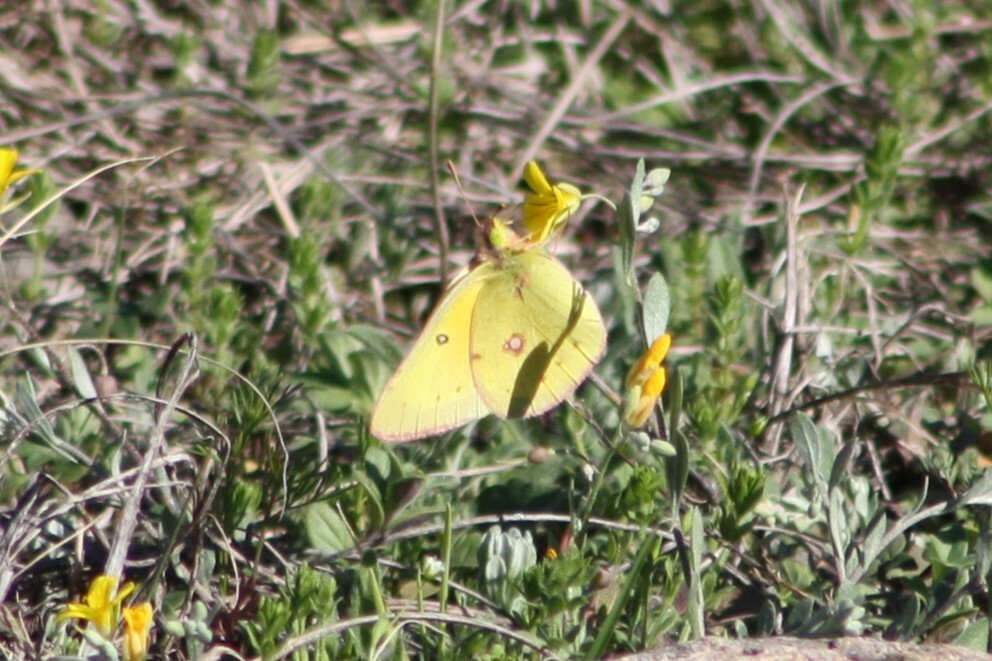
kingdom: Animalia
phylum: Arthropoda
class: Insecta
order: Lepidoptera
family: Pieridae
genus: Colias
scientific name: Colias eurytheme
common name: Alfalfa butterfly
